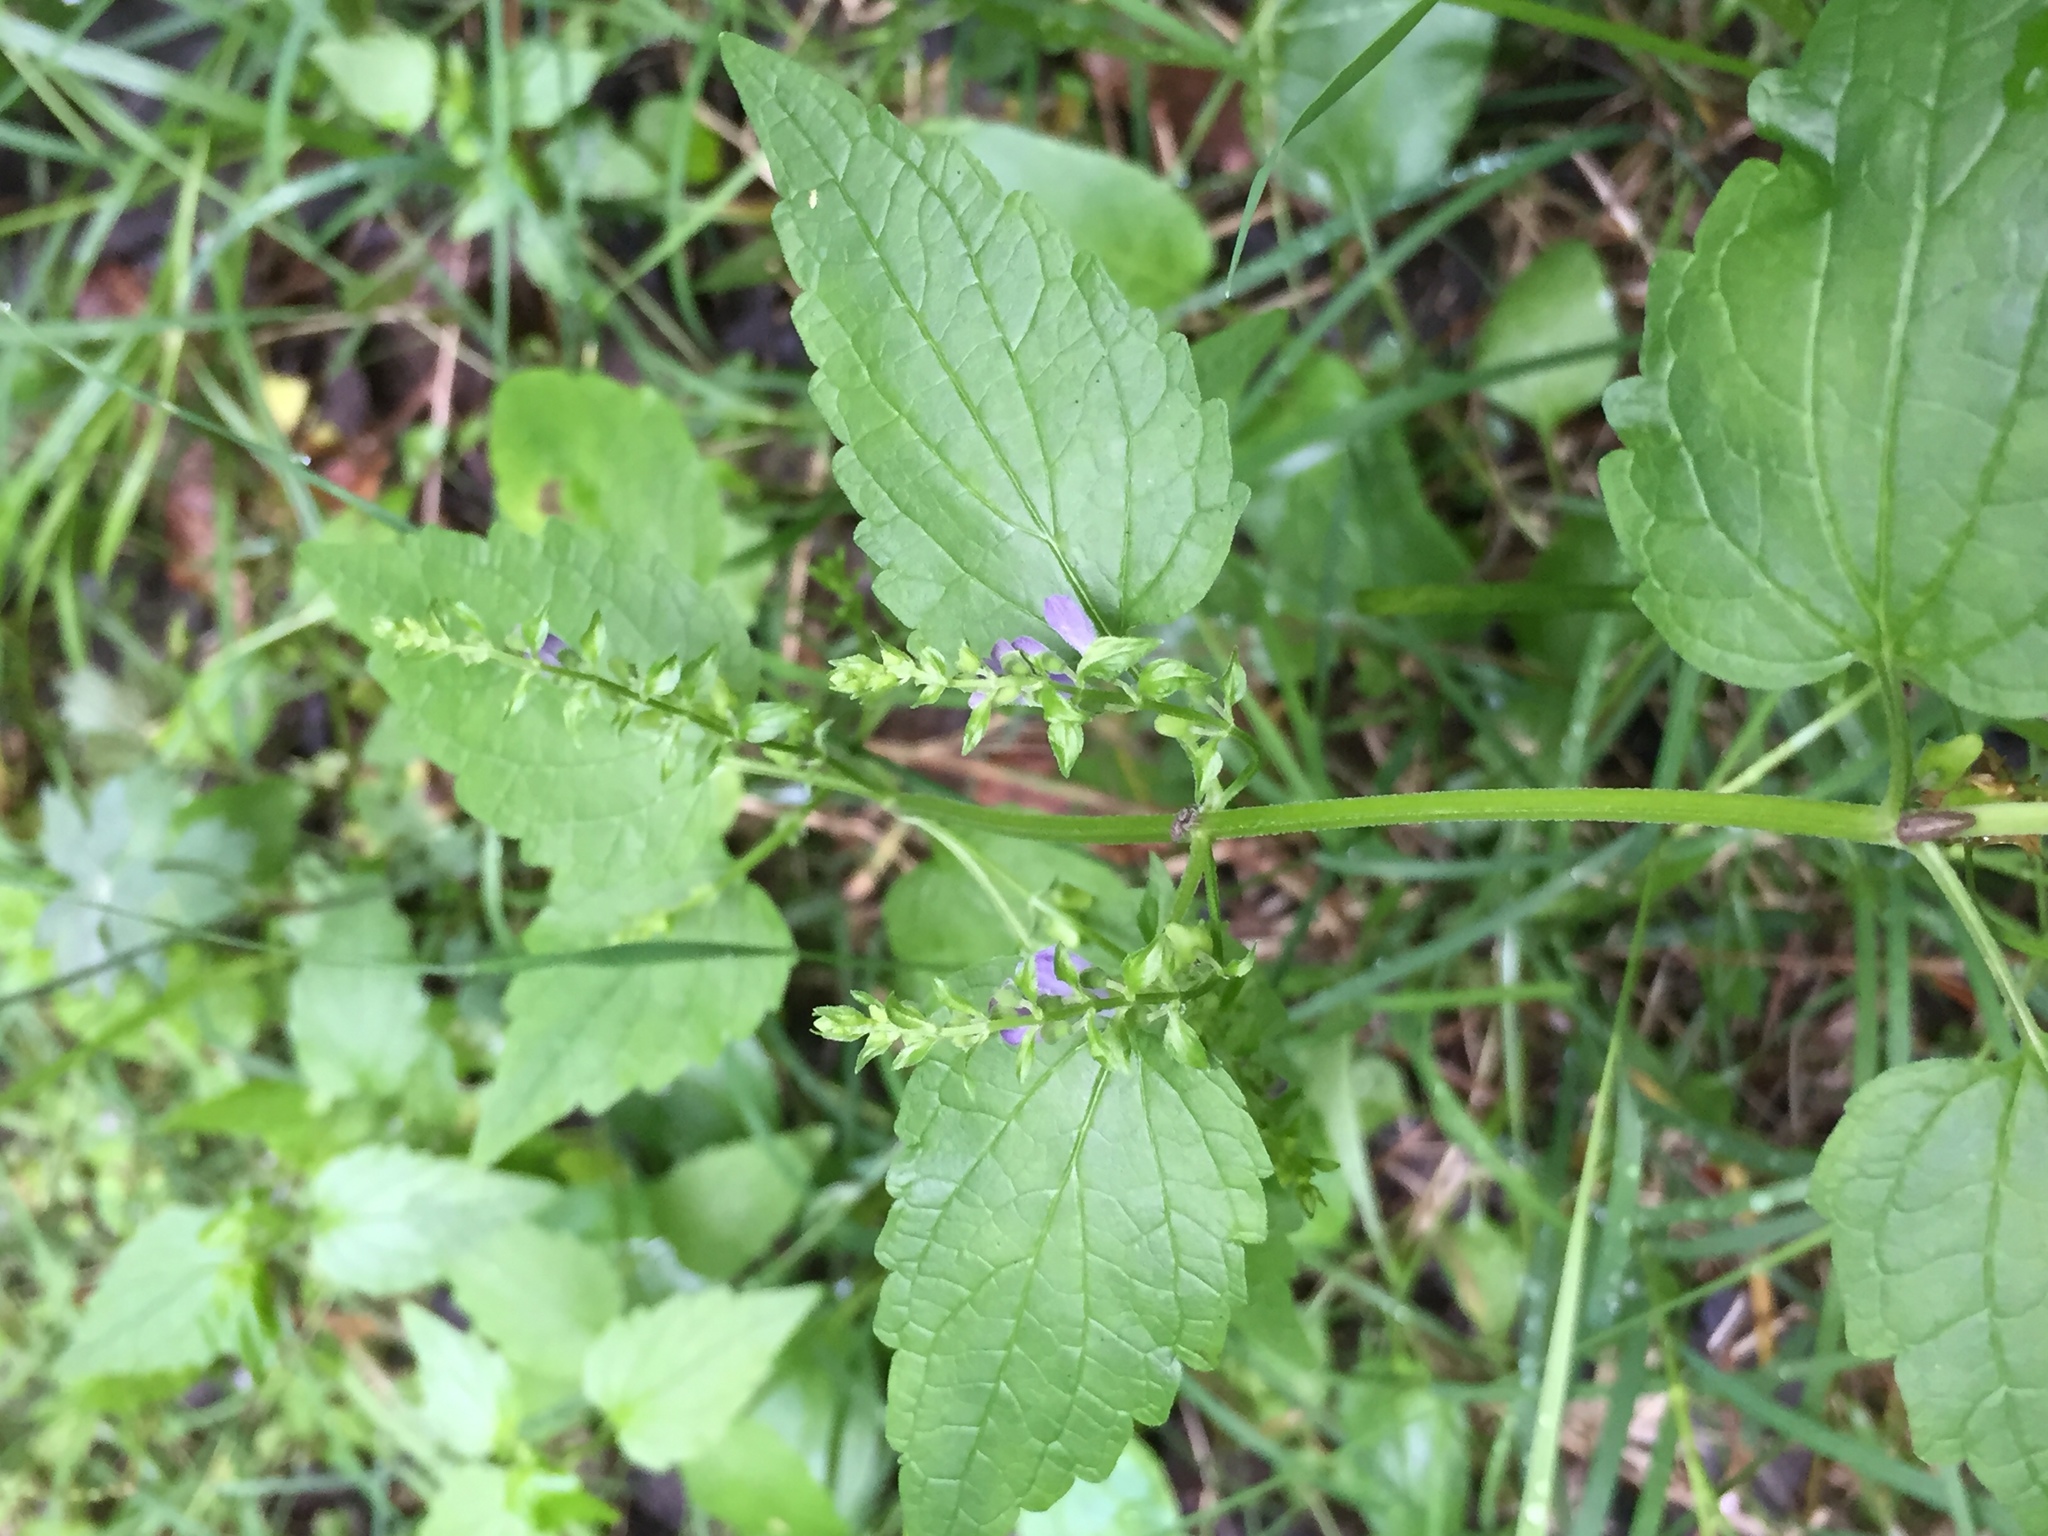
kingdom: Plantae
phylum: Tracheophyta
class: Magnoliopsida
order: Lamiales
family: Lamiaceae
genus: Scutellaria
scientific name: Scutellaria lateriflora
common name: Blue skullcap
